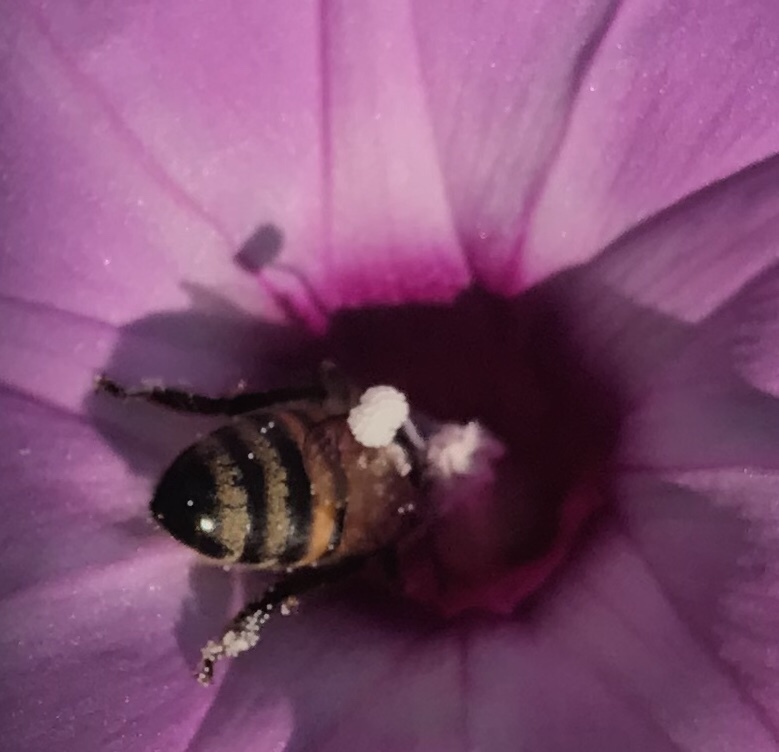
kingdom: Animalia
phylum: Arthropoda
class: Insecta
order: Hymenoptera
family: Apidae
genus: Apis
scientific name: Apis mellifera
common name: Honey bee
